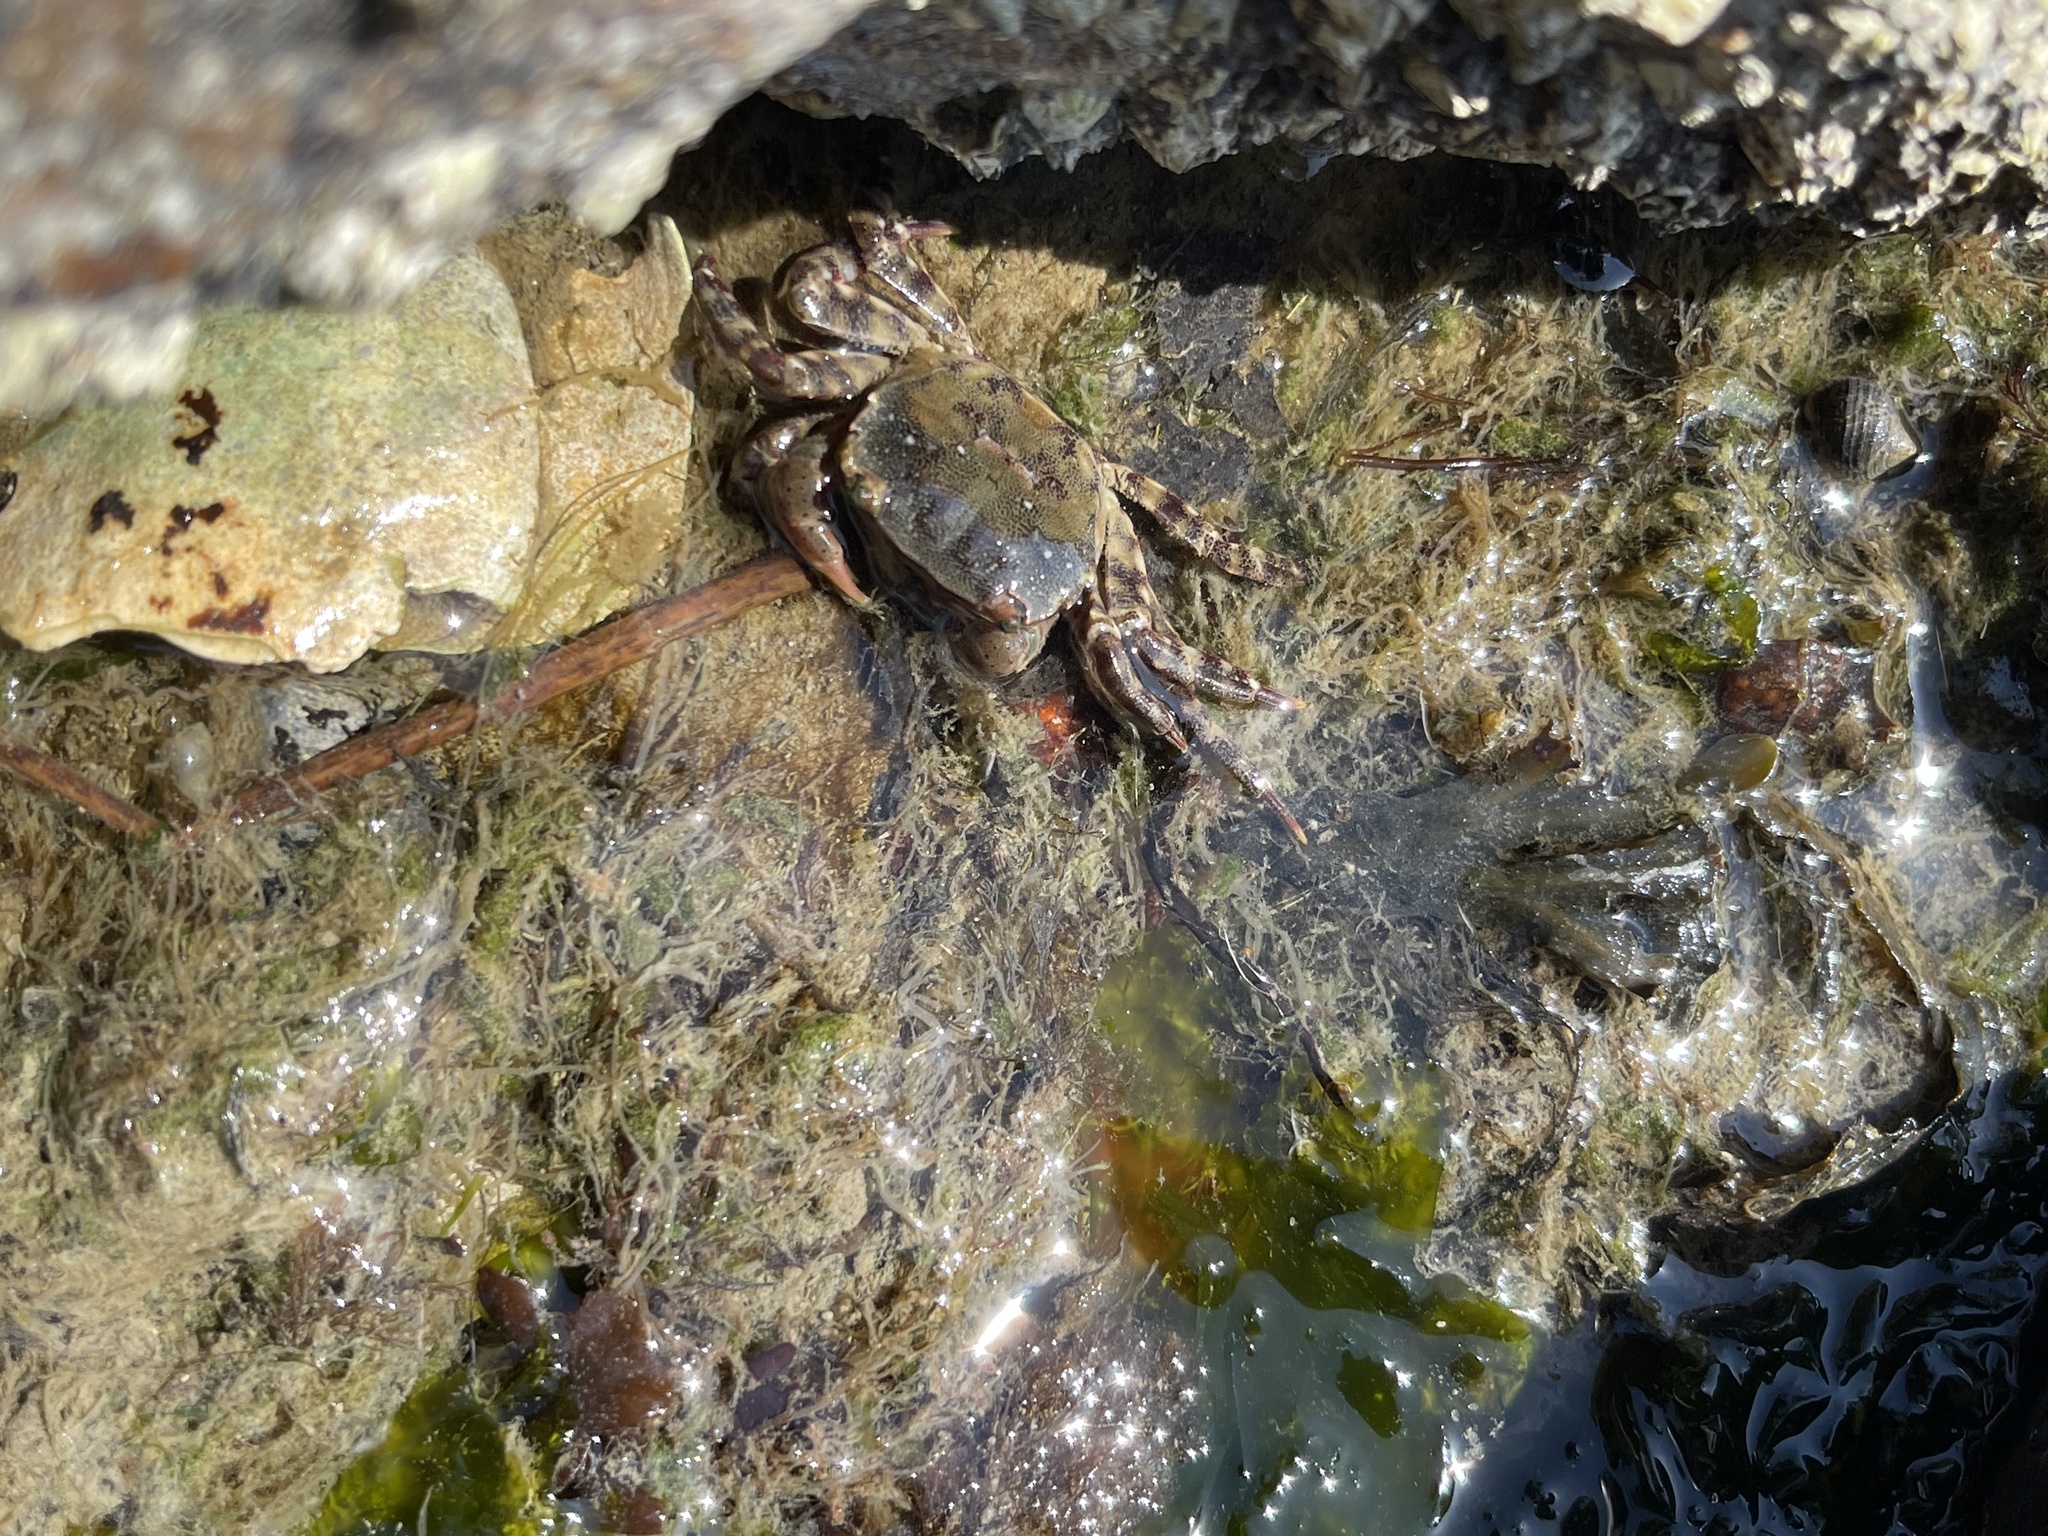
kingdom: Animalia
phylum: Arthropoda
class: Malacostraca
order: Decapoda
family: Varunidae
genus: Hemigrapsus
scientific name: Hemigrapsus sanguineus
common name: Asian shore crab
